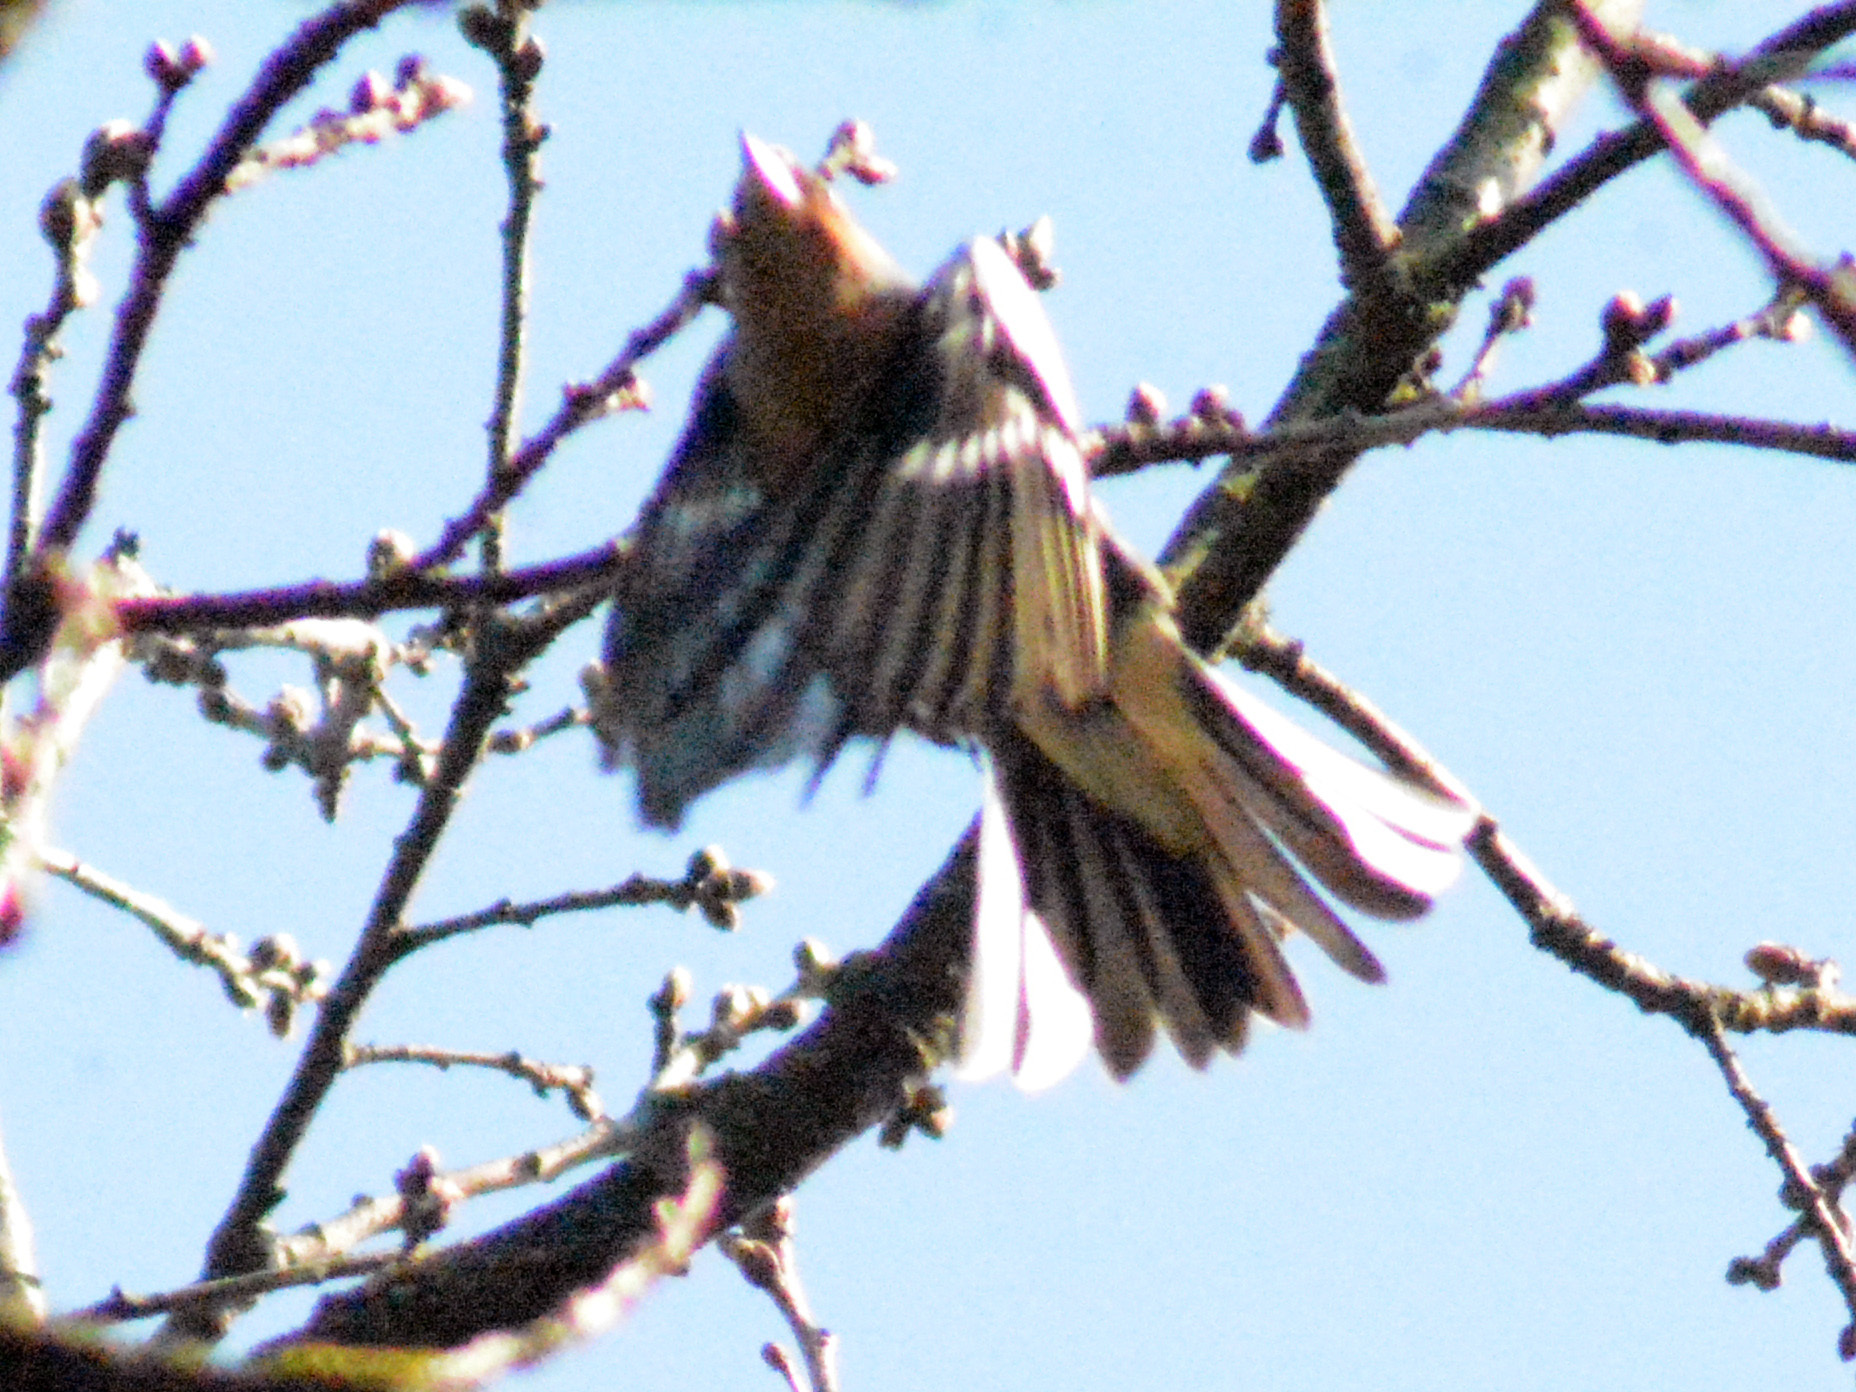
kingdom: Animalia
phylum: Chordata
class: Aves
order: Passeriformes
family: Fringillidae
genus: Fringilla
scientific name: Fringilla coelebs
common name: Common chaffinch
